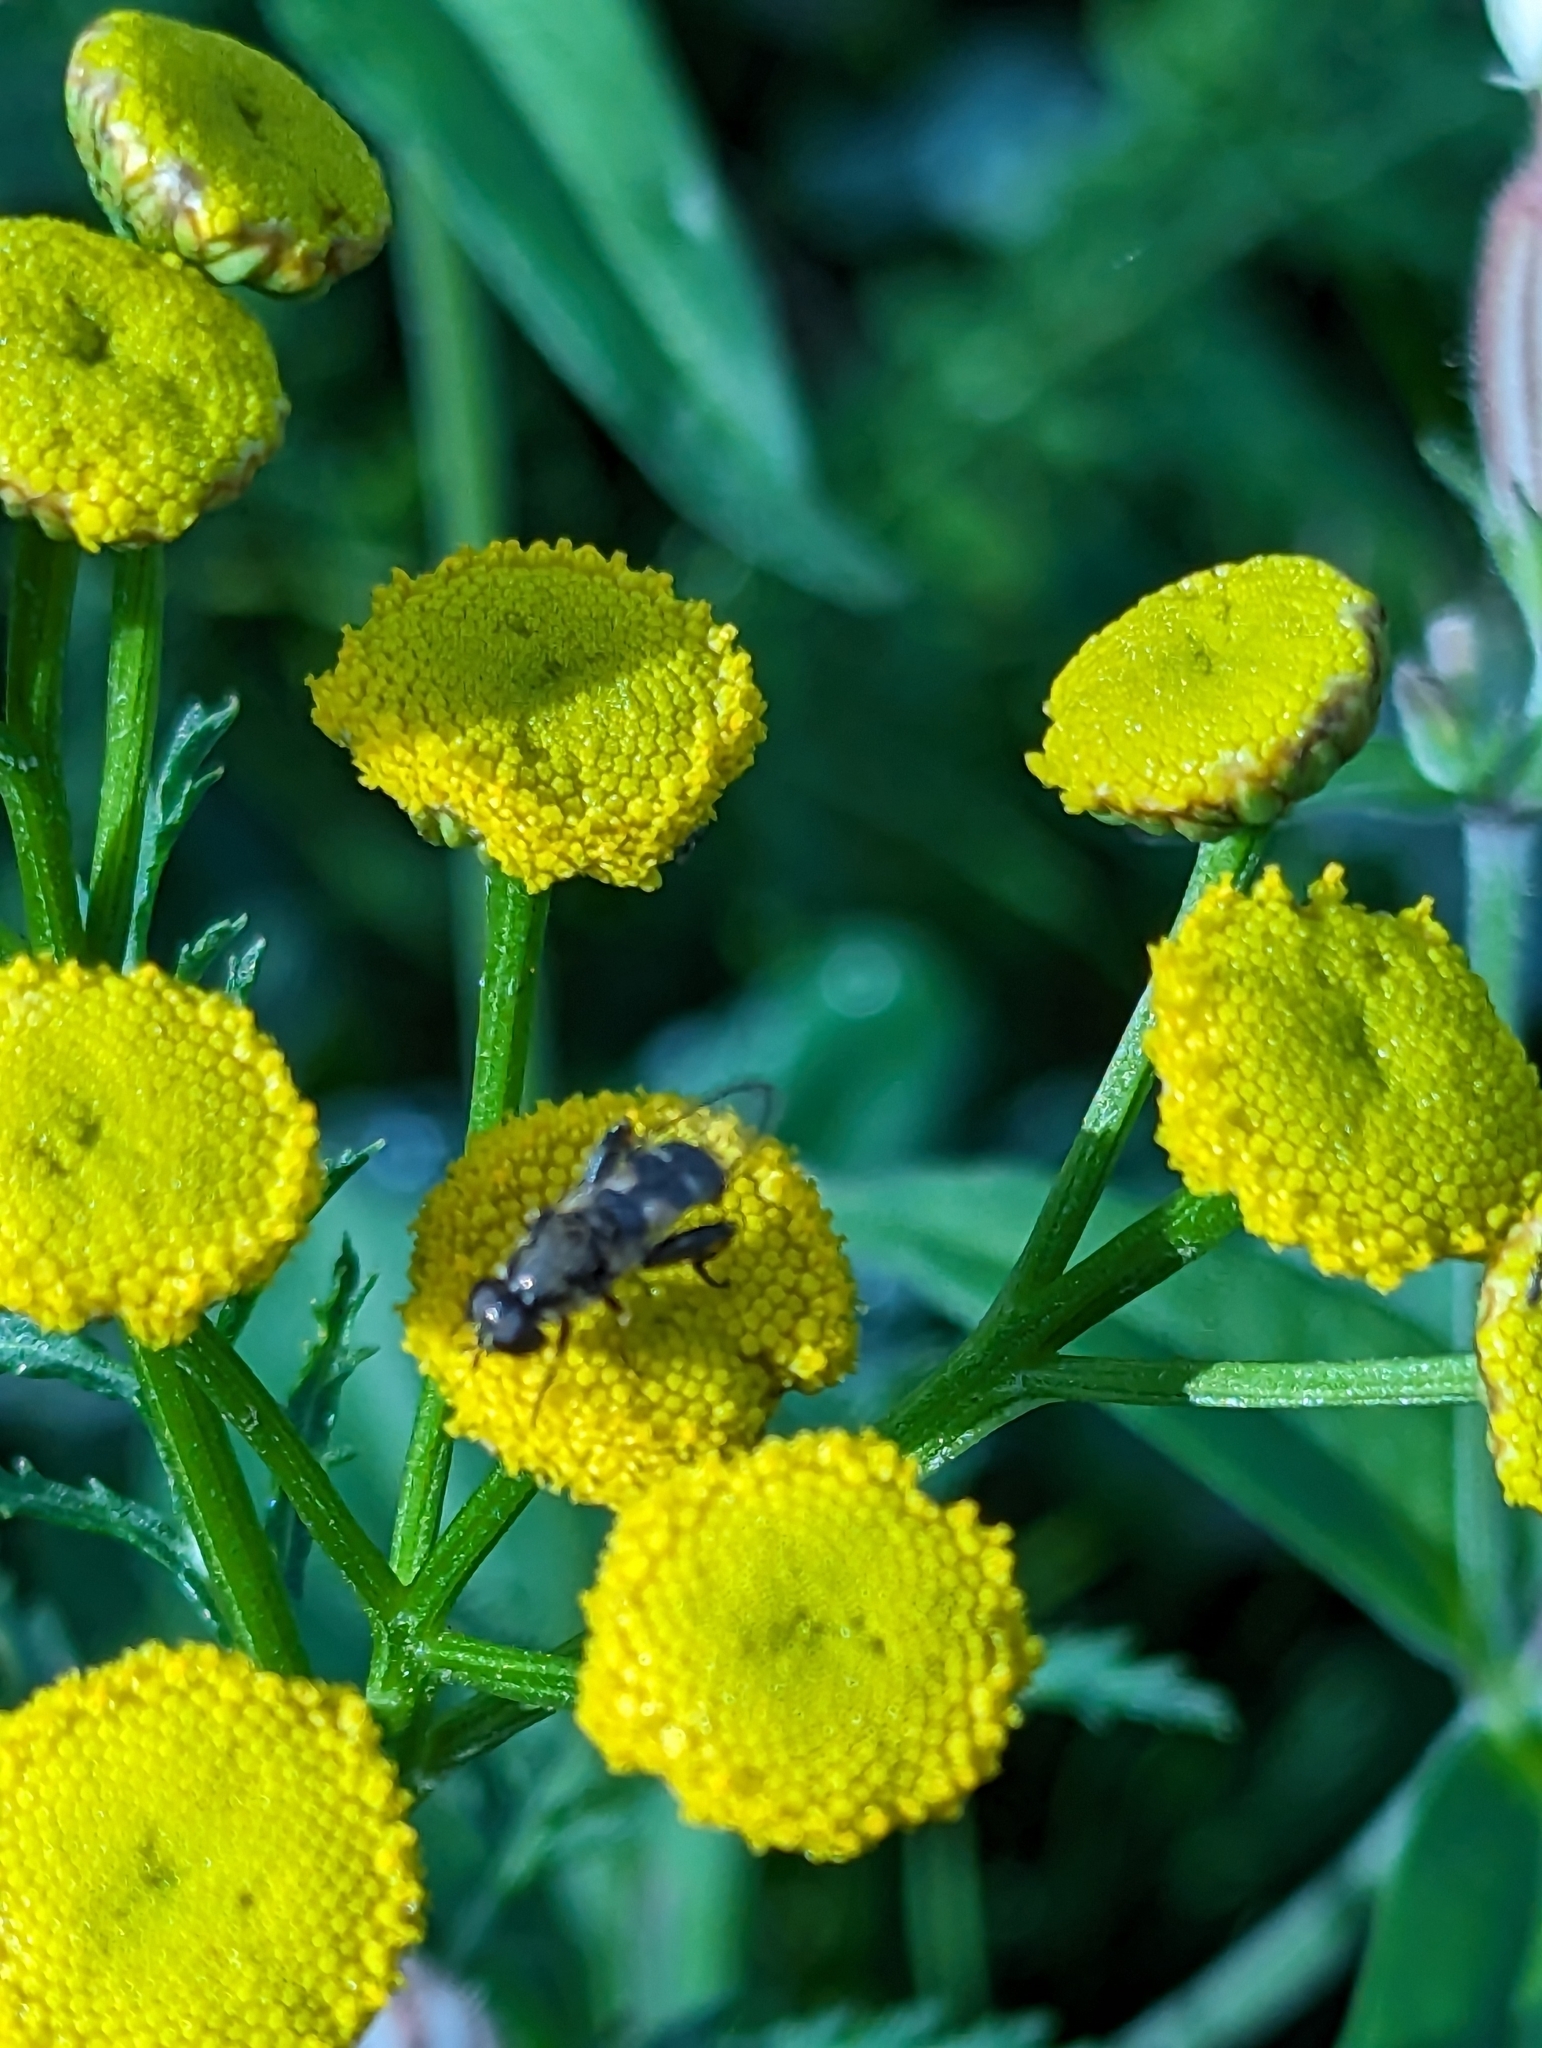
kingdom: Animalia
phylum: Arthropoda
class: Insecta
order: Diptera
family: Syrphidae
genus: Syritta
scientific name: Syritta pipiens
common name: Hover fly
